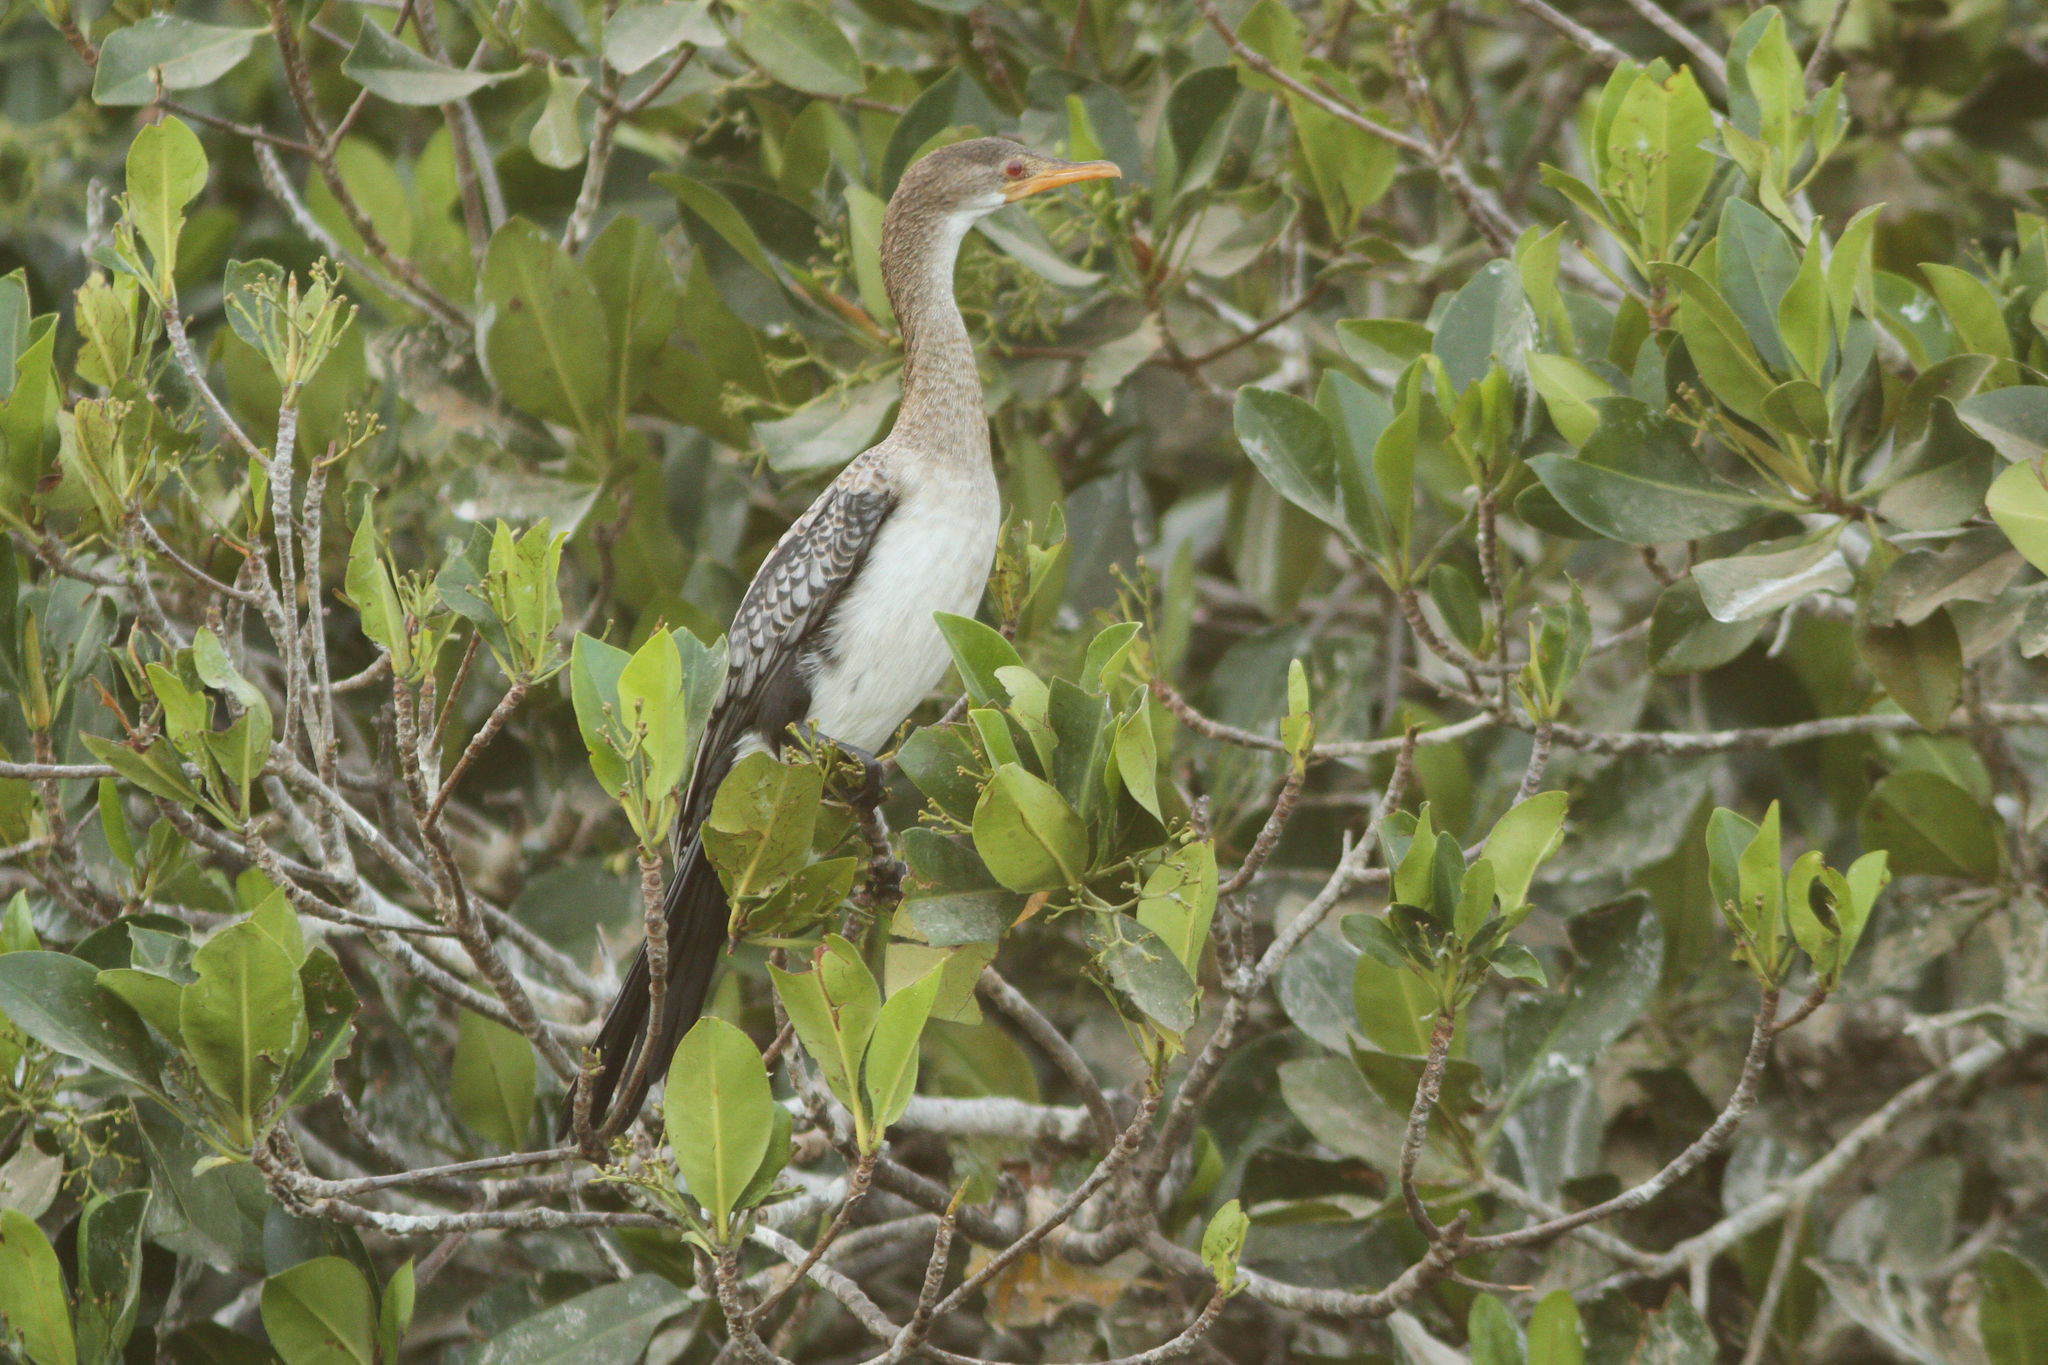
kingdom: Animalia
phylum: Chordata
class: Aves
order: Suliformes
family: Phalacrocoracidae
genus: Microcarbo
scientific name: Microcarbo africanus
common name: Long-tailed cormorant
